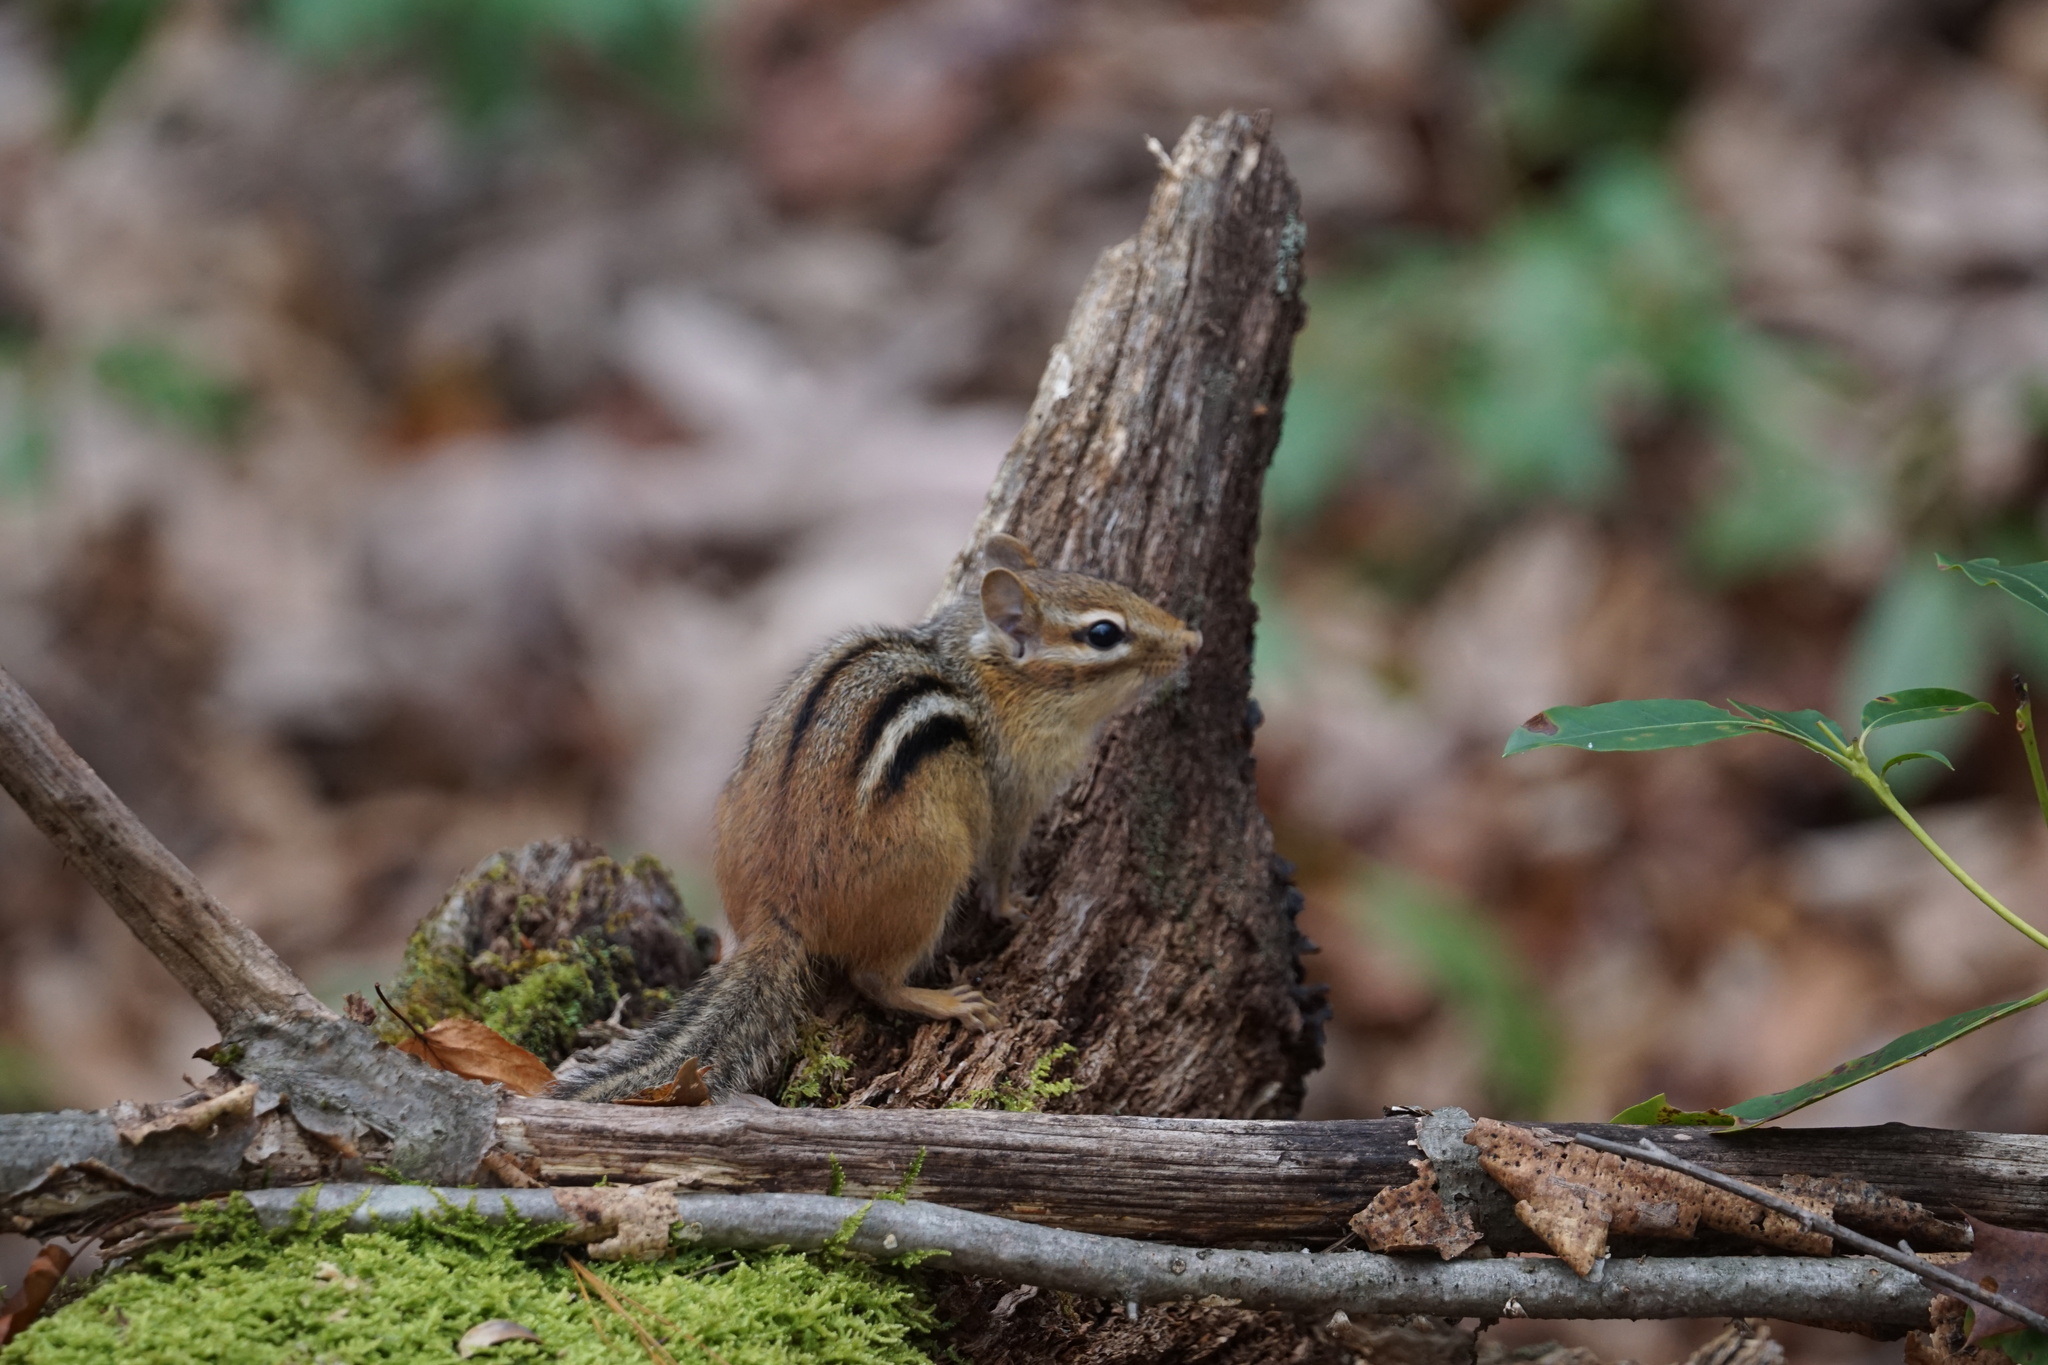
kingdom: Animalia
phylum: Chordata
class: Mammalia
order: Rodentia
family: Sciuridae
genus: Tamias
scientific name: Tamias striatus
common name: Eastern chipmunk
